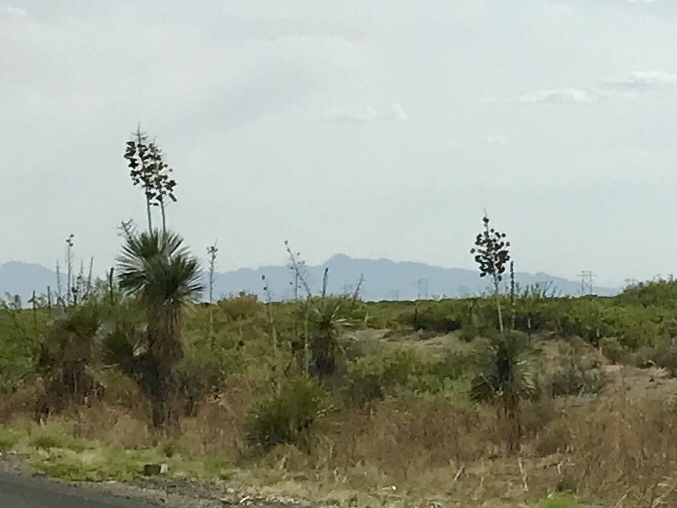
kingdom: Plantae
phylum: Tracheophyta
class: Liliopsida
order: Asparagales
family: Asparagaceae
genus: Yucca
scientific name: Yucca elata
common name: Palmella
